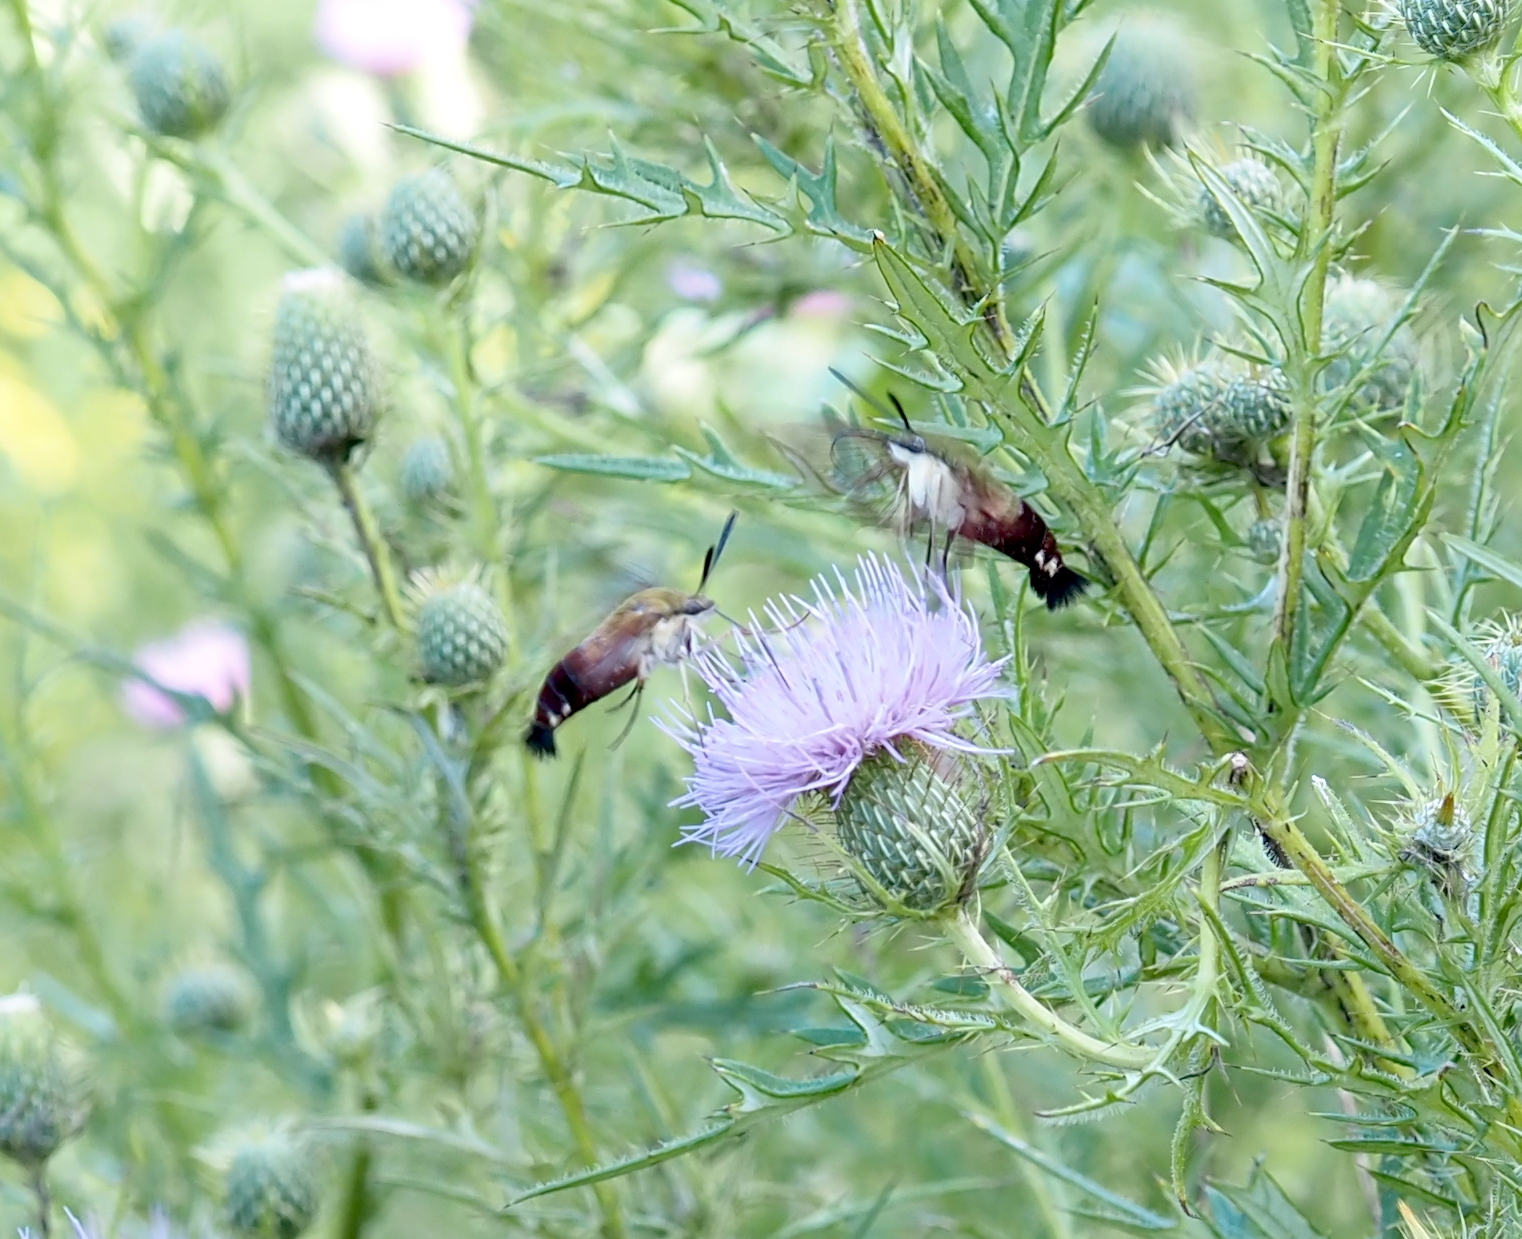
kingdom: Animalia
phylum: Arthropoda
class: Insecta
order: Lepidoptera
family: Sphingidae
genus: Hemaris
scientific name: Hemaris thysbe
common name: Common clear-wing
